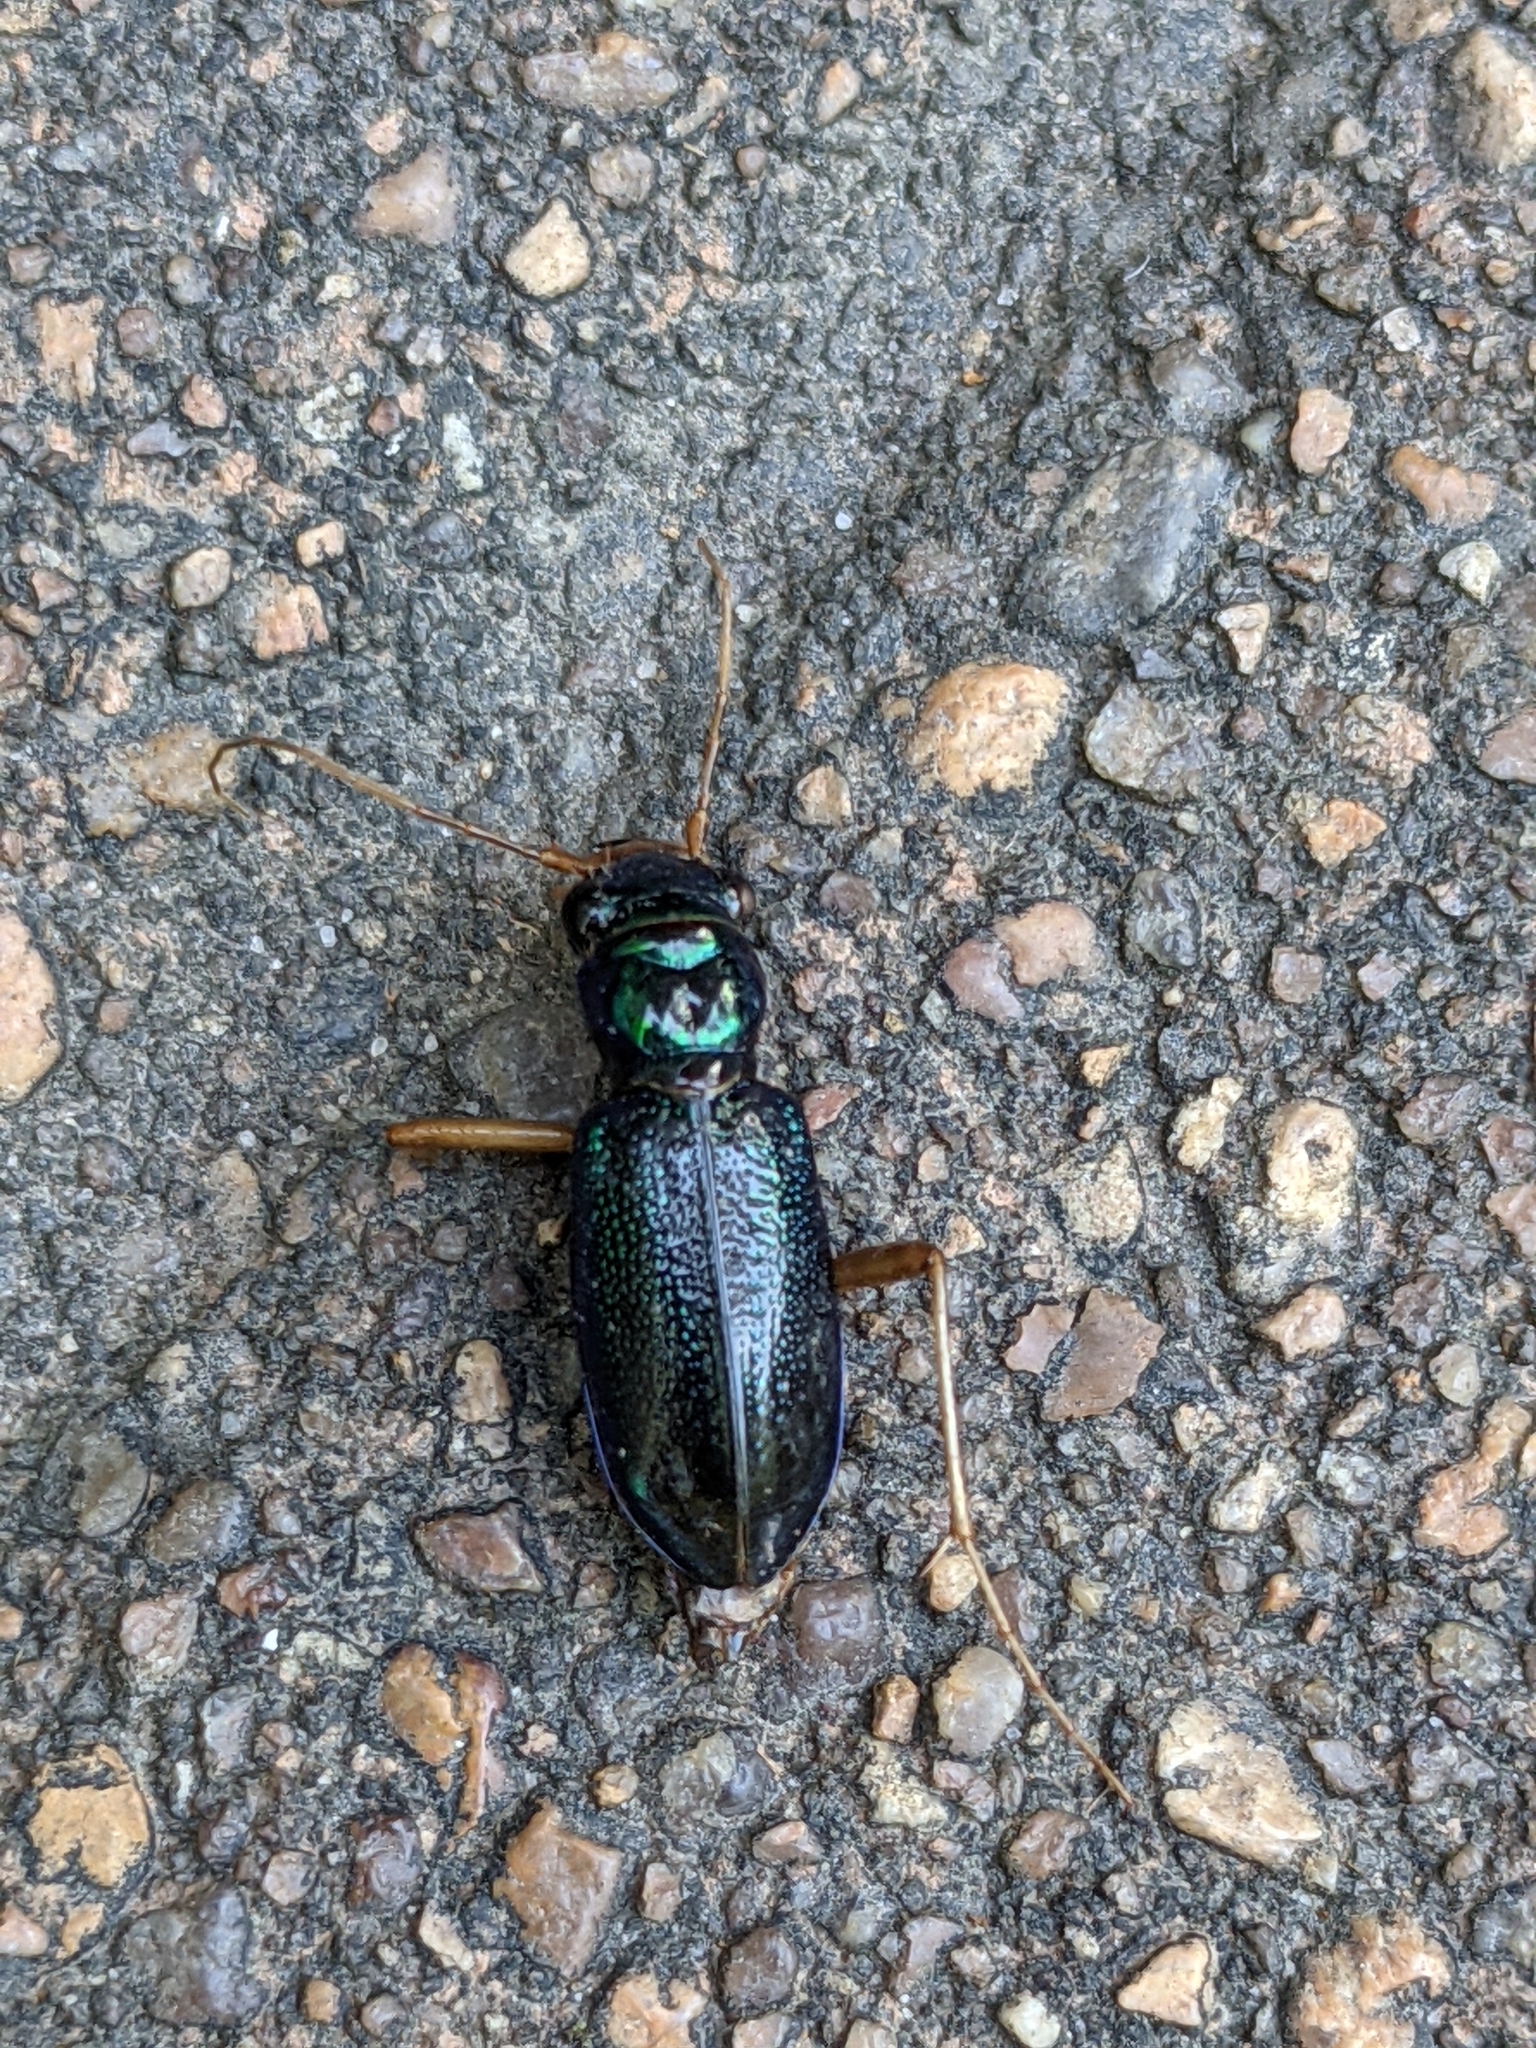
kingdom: Animalia
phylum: Arthropoda
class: Insecta
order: Coleoptera
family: Carabidae
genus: Tetracha
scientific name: Tetracha virginica
